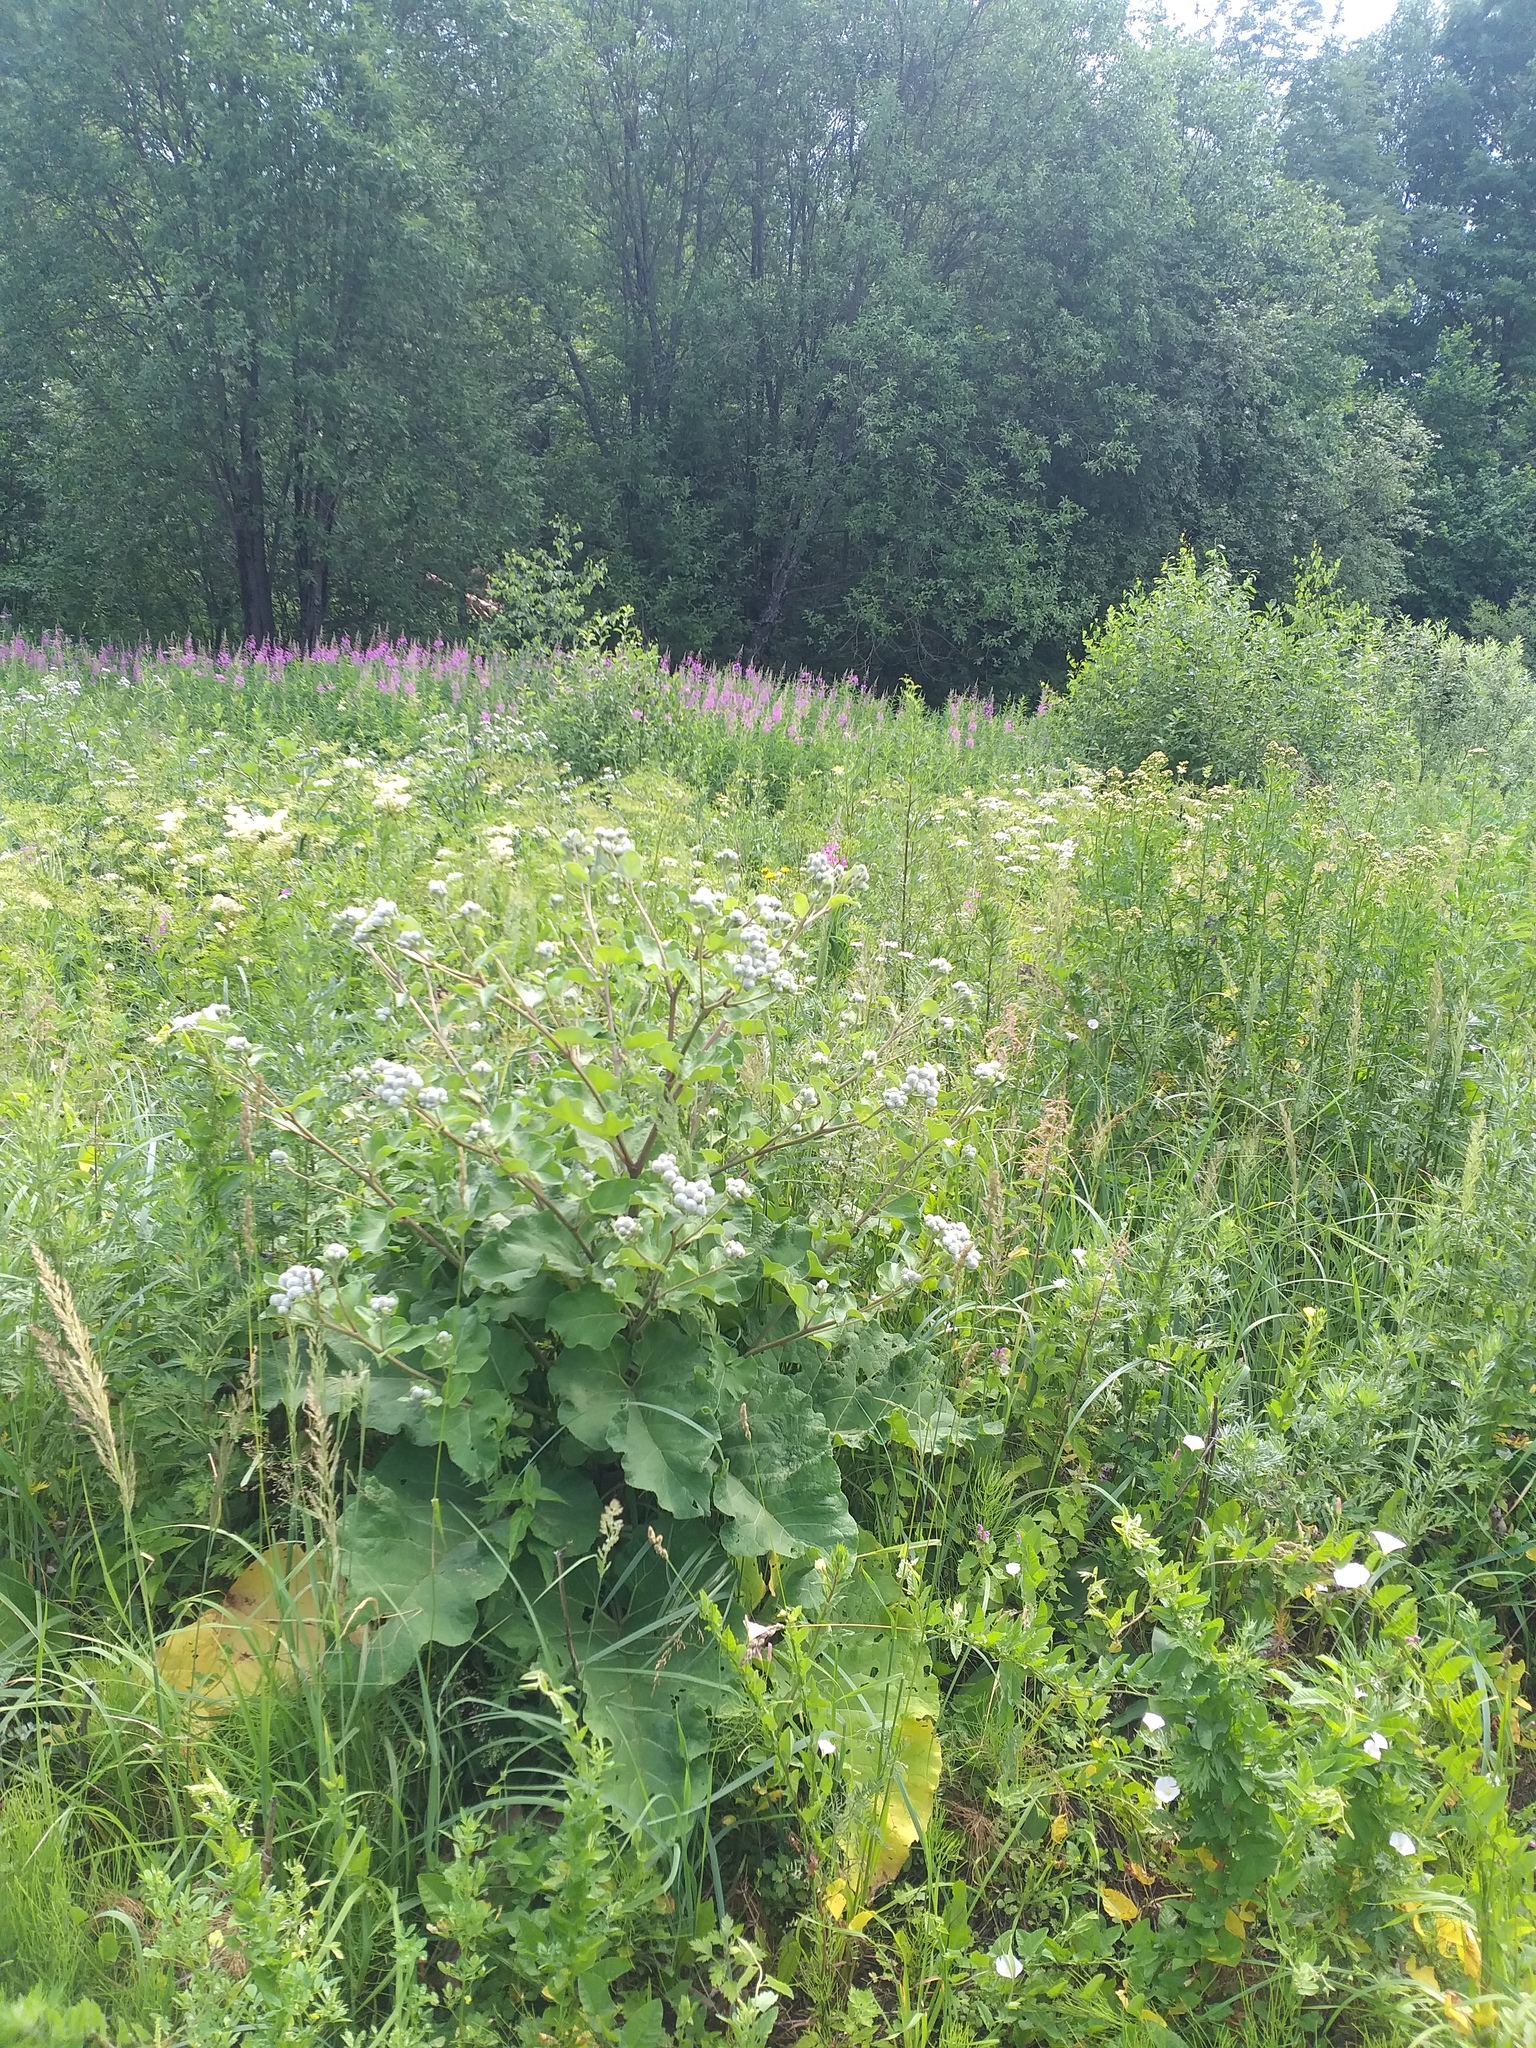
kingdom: Plantae
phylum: Tracheophyta
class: Magnoliopsida
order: Asterales
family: Asteraceae
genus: Arctium
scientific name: Arctium tomentosum
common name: Woolly burdock
